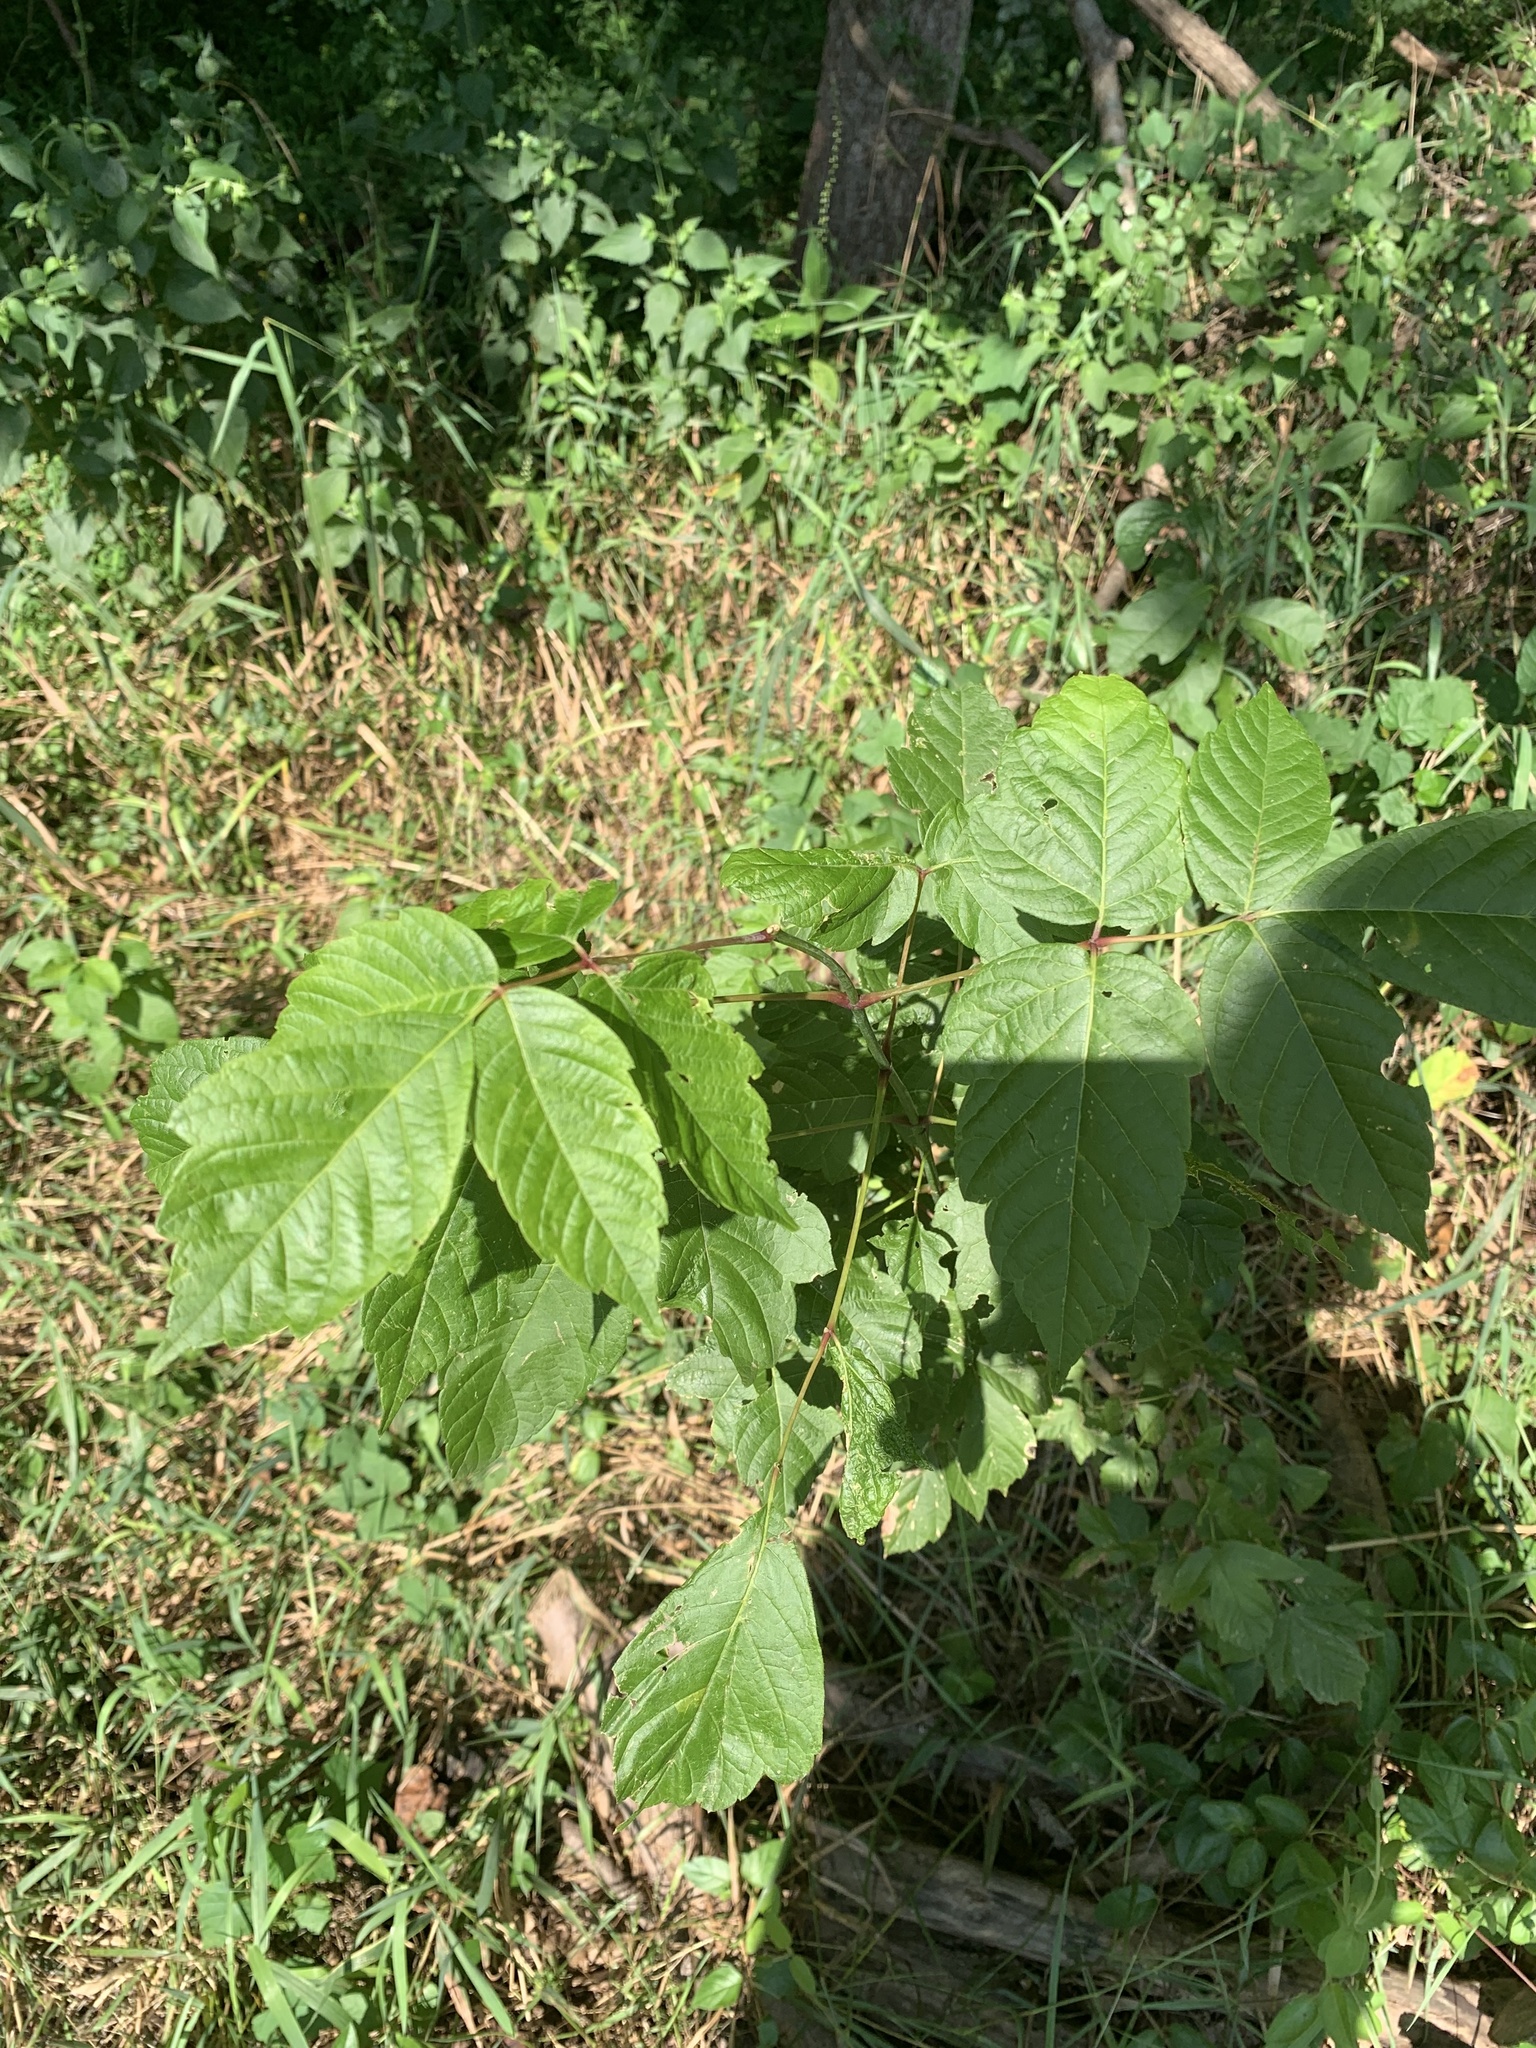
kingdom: Plantae
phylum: Tracheophyta
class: Magnoliopsida
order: Sapindales
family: Sapindaceae
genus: Acer
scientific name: Acer negundo
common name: Ashleaf maple
